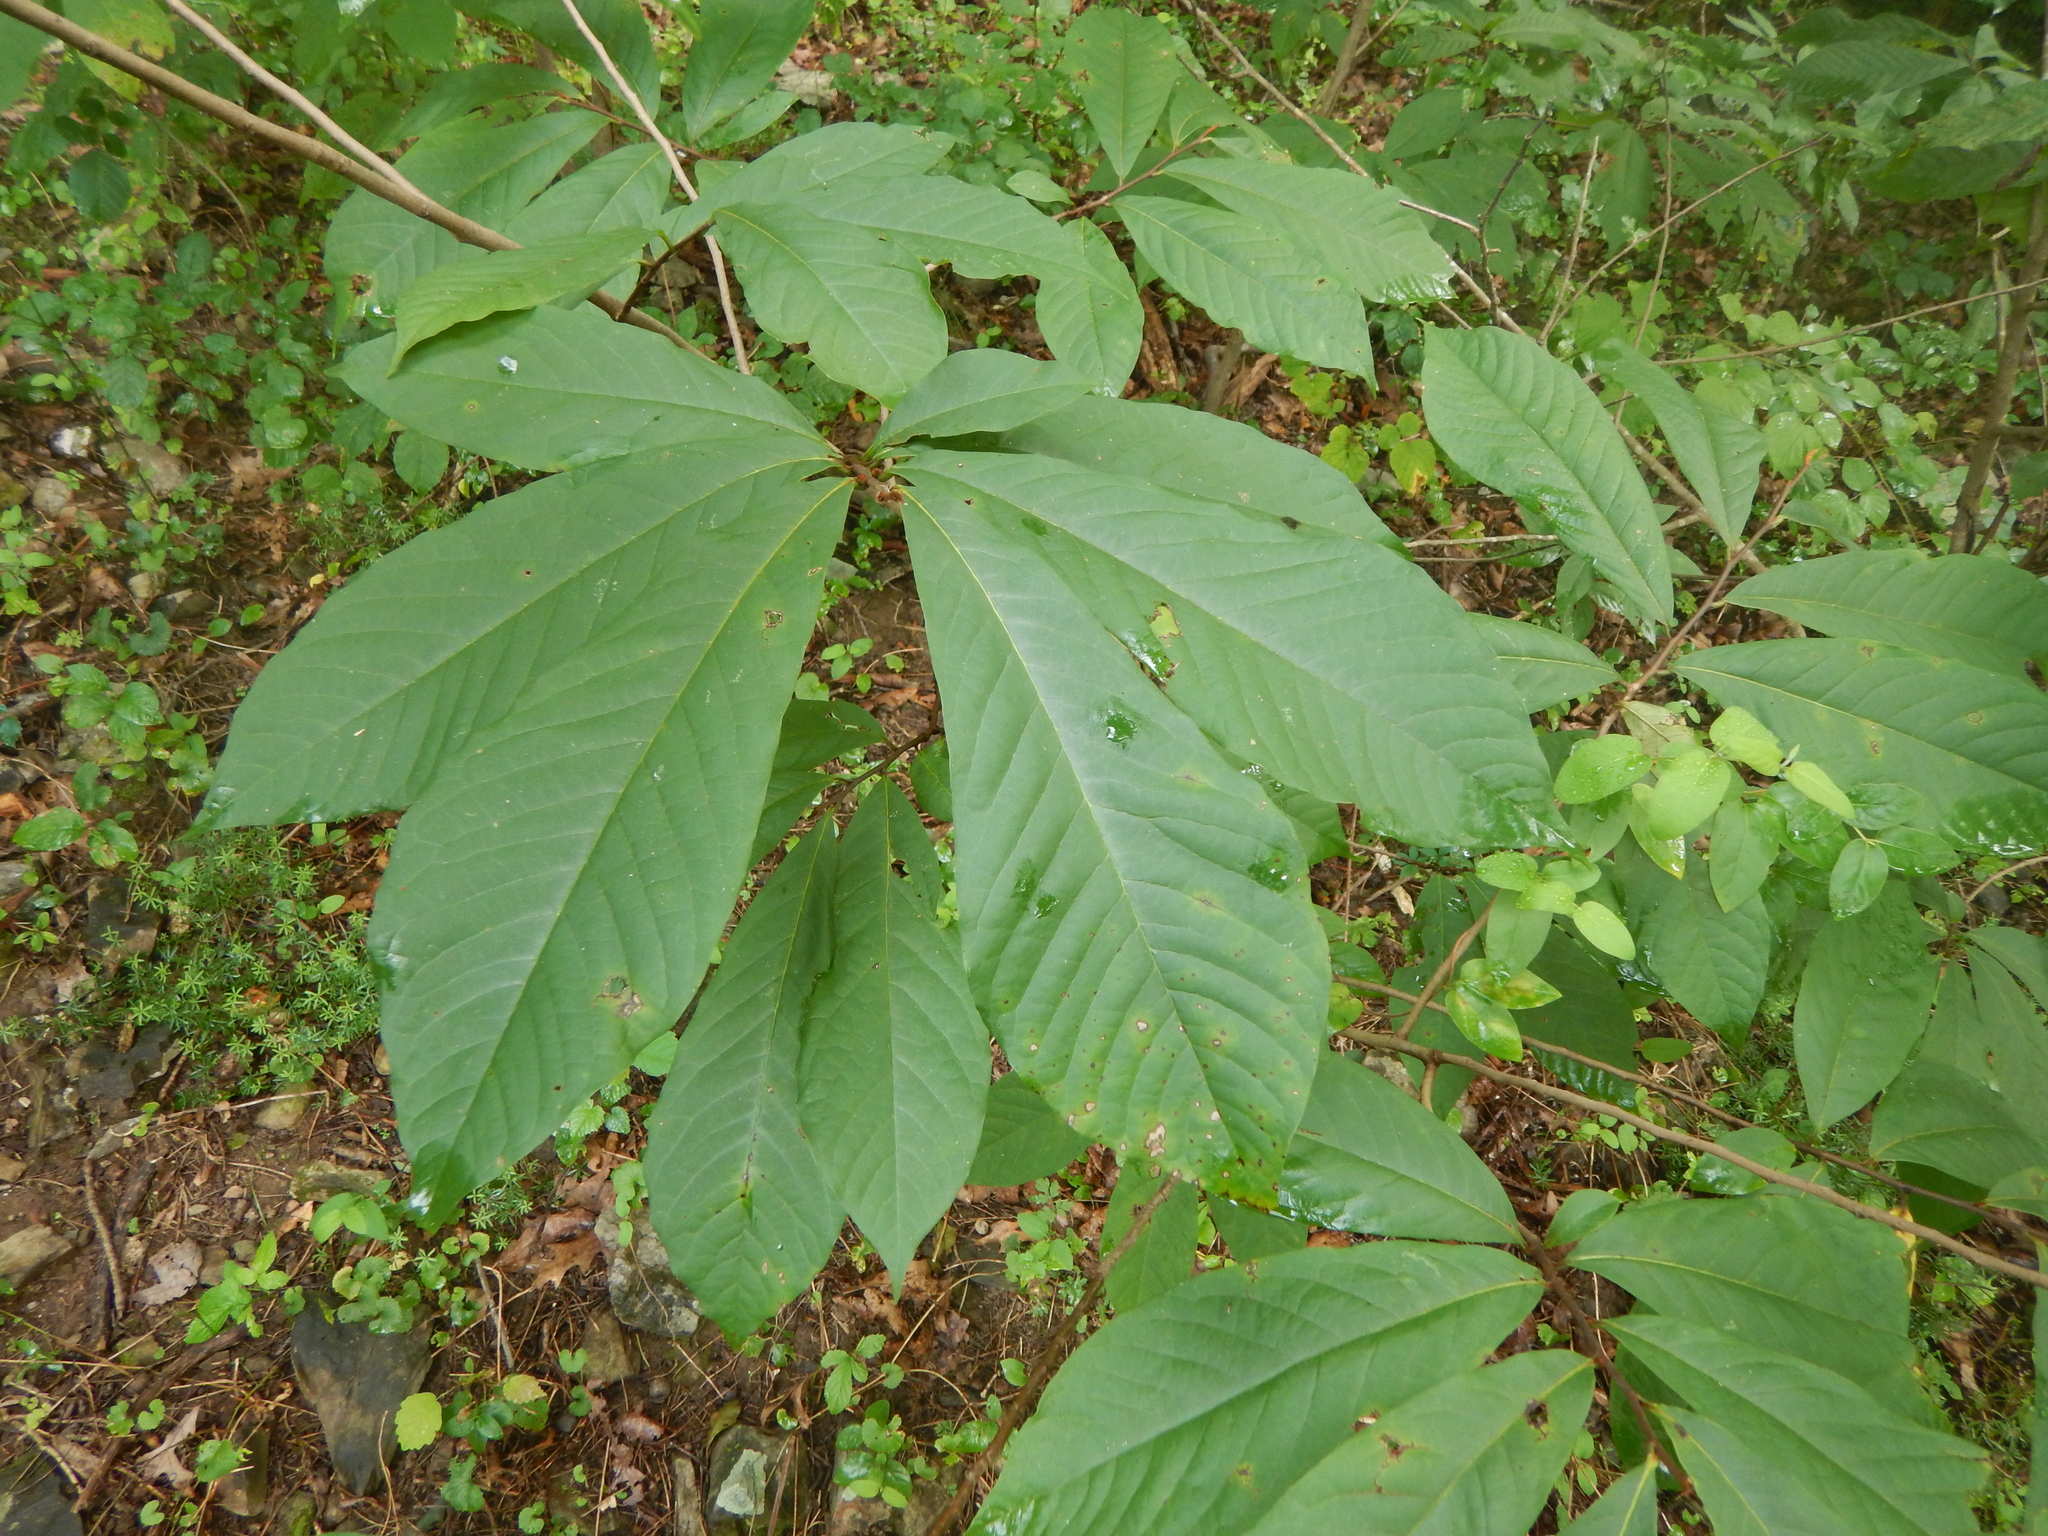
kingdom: Plantae
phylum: Tracheophyta
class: Magnoliopsida
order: Magnoliales
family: Annonaceae
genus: Asimina
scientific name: Asimina triloba
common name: Dog-banana
